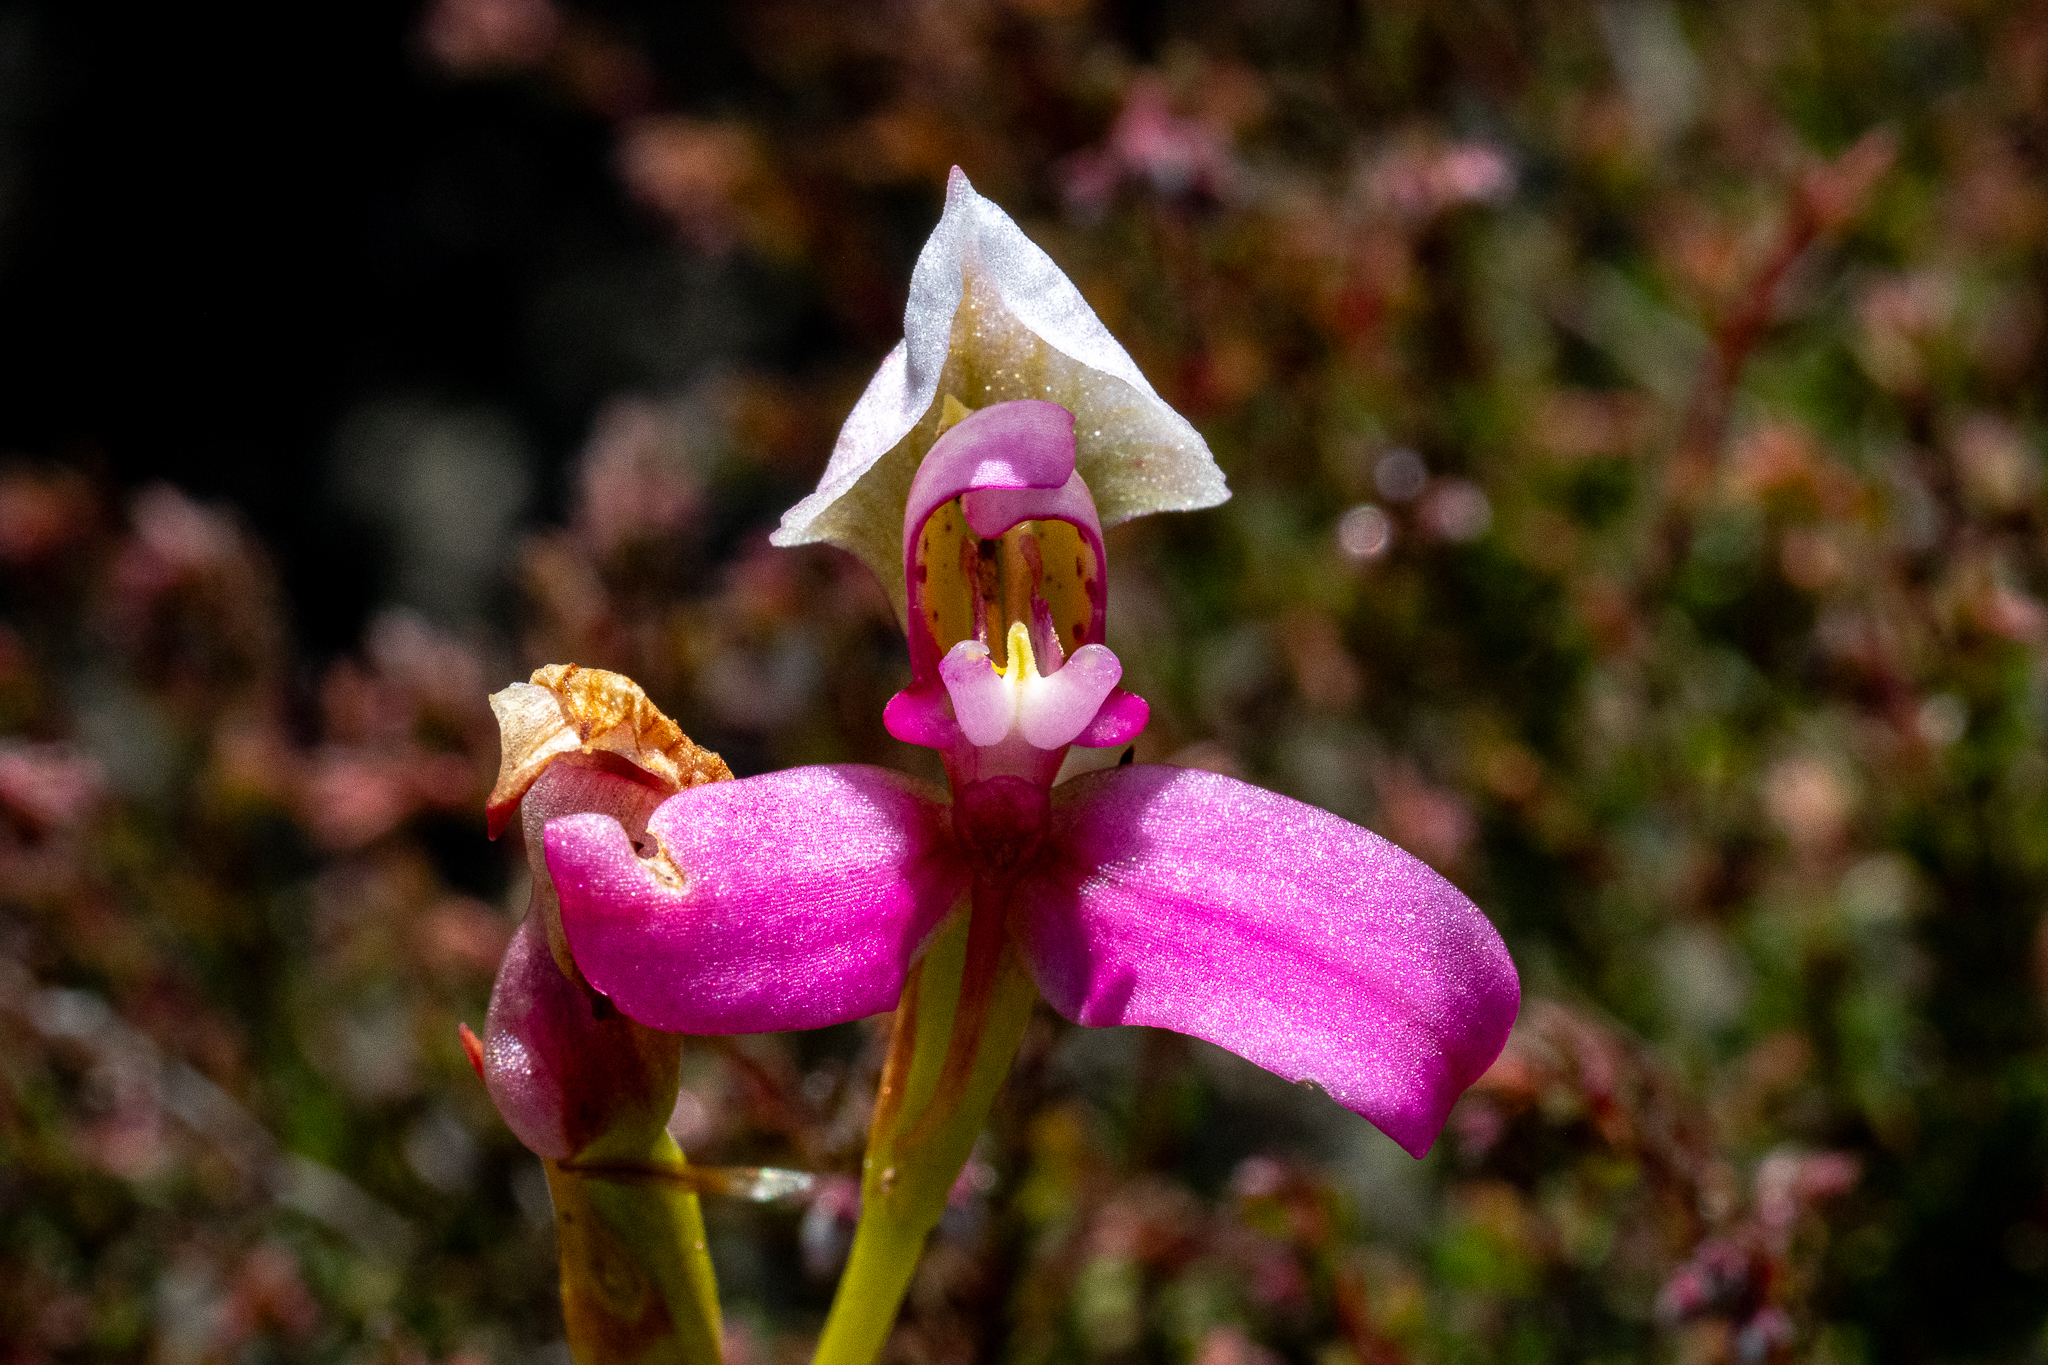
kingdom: Plantae
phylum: Tracheophyta
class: Liliopsida
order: Asparagales
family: Orchidaceae
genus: Disa
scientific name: Disa filicornis
